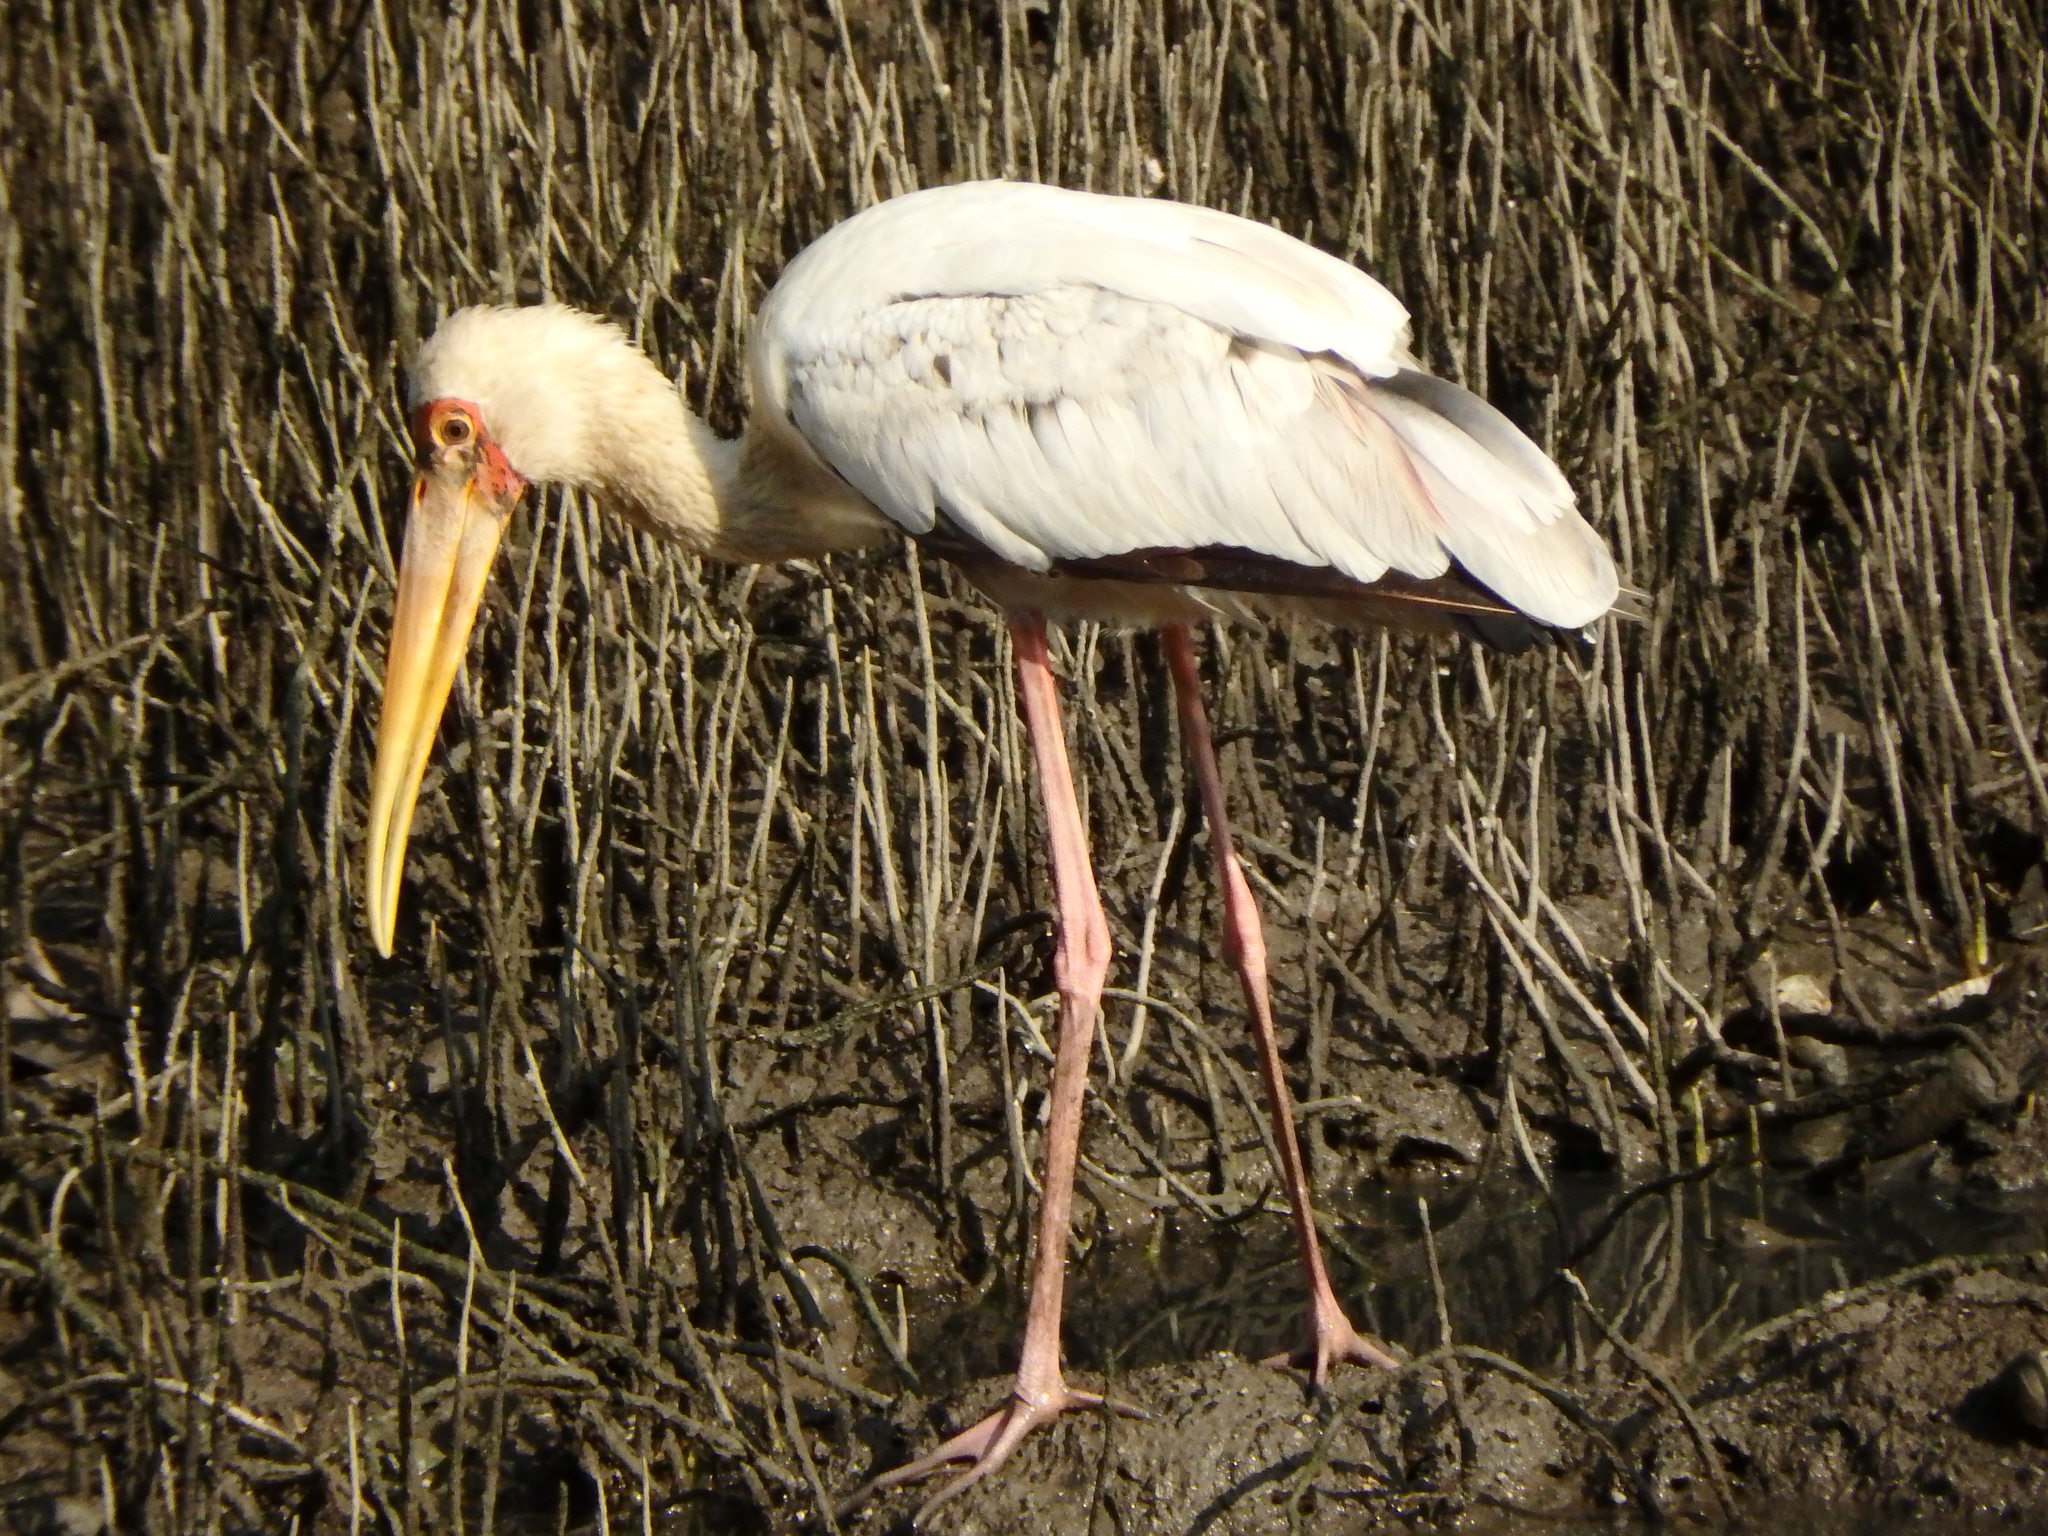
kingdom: Animalia
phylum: Chordata
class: Aves
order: Ciconiiformes
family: Ciconiidae
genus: Mycteria
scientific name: Mycteria
